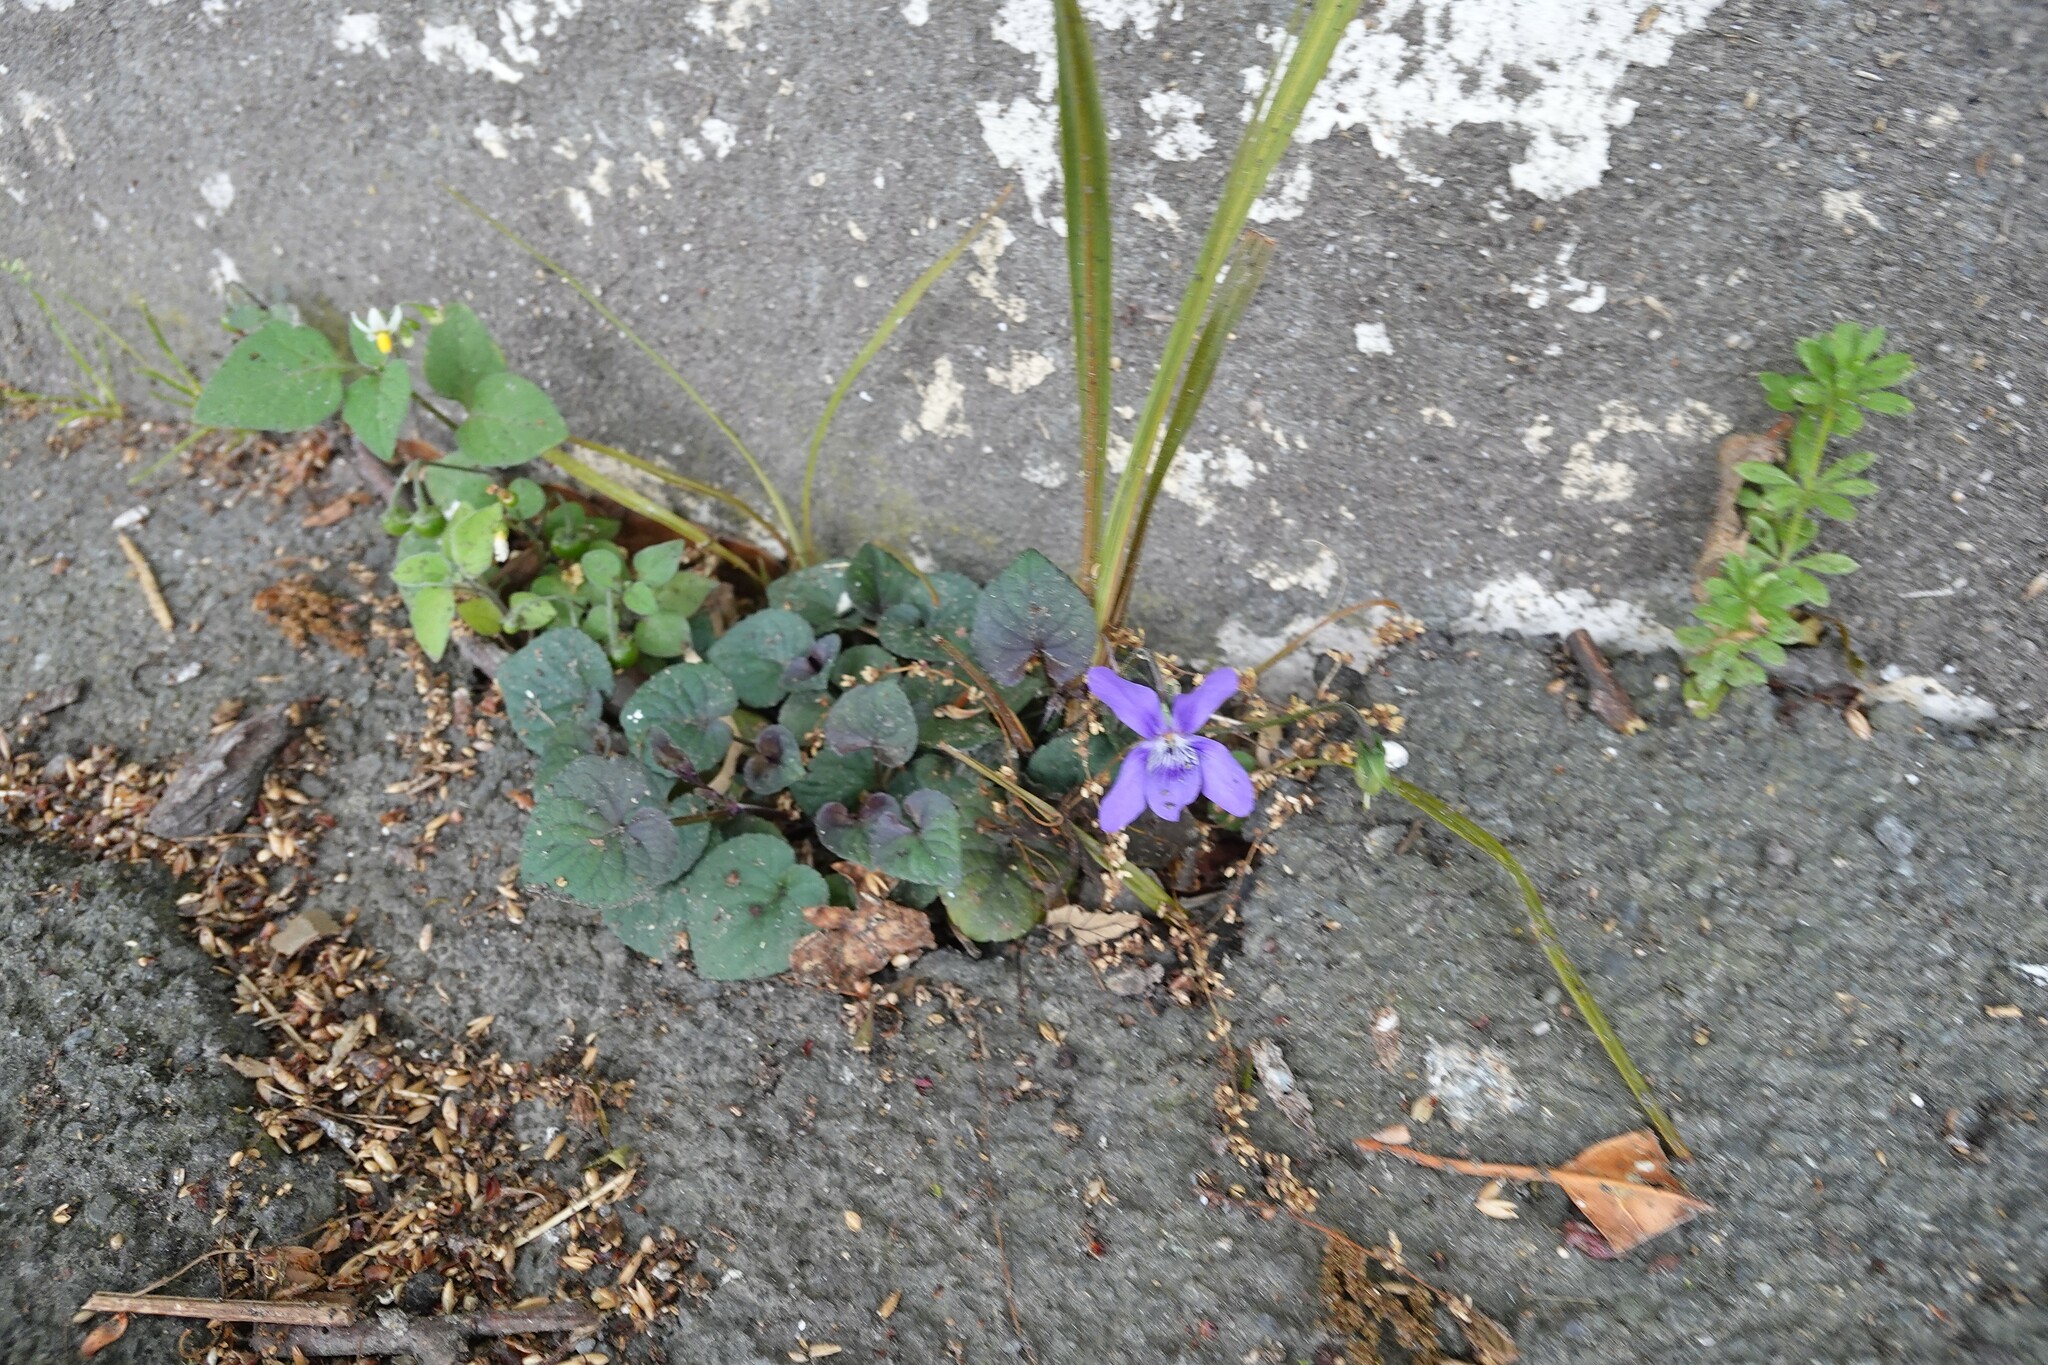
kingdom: Plantae
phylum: Tracheophyta
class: Magnoliopsida
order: Malpighiales
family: Violaceae
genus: Viola
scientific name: Viola riviniana
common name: Common dog-violet
